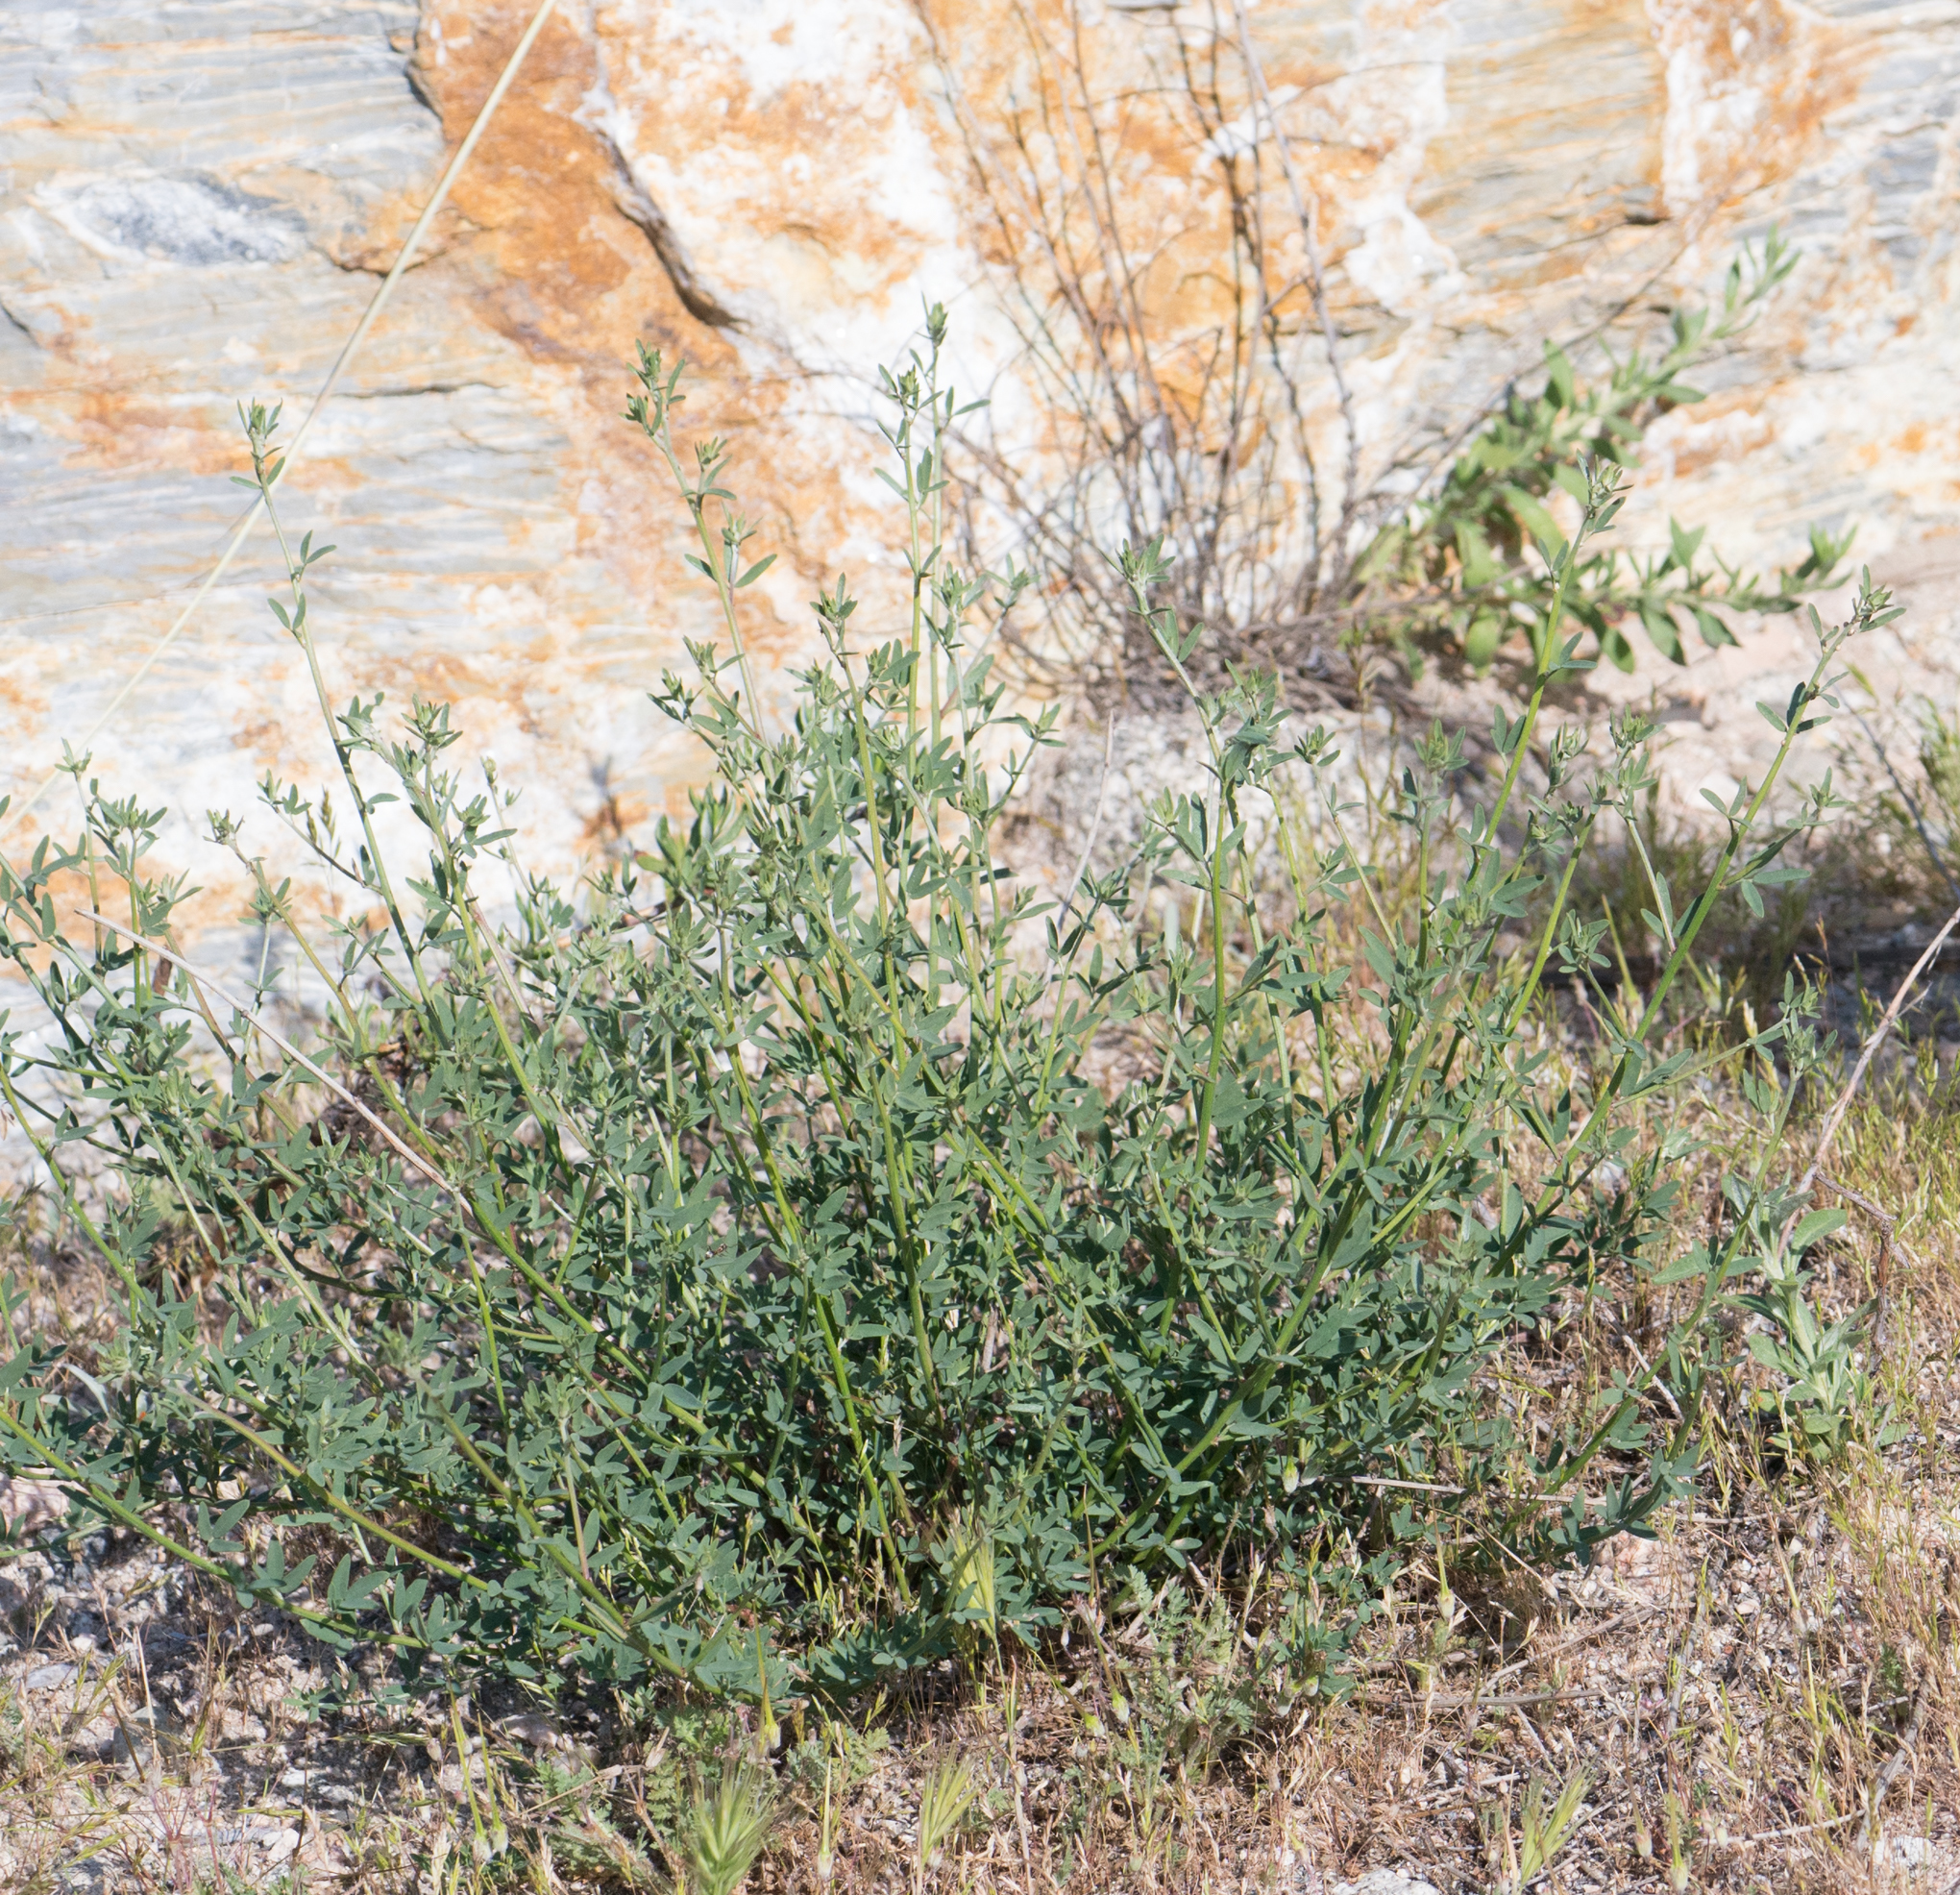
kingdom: Plantae
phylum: Tracheophyta
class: Magnoliopsida
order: Fabales
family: Fabaceae
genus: Acmispon
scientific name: Acmispon glaber
